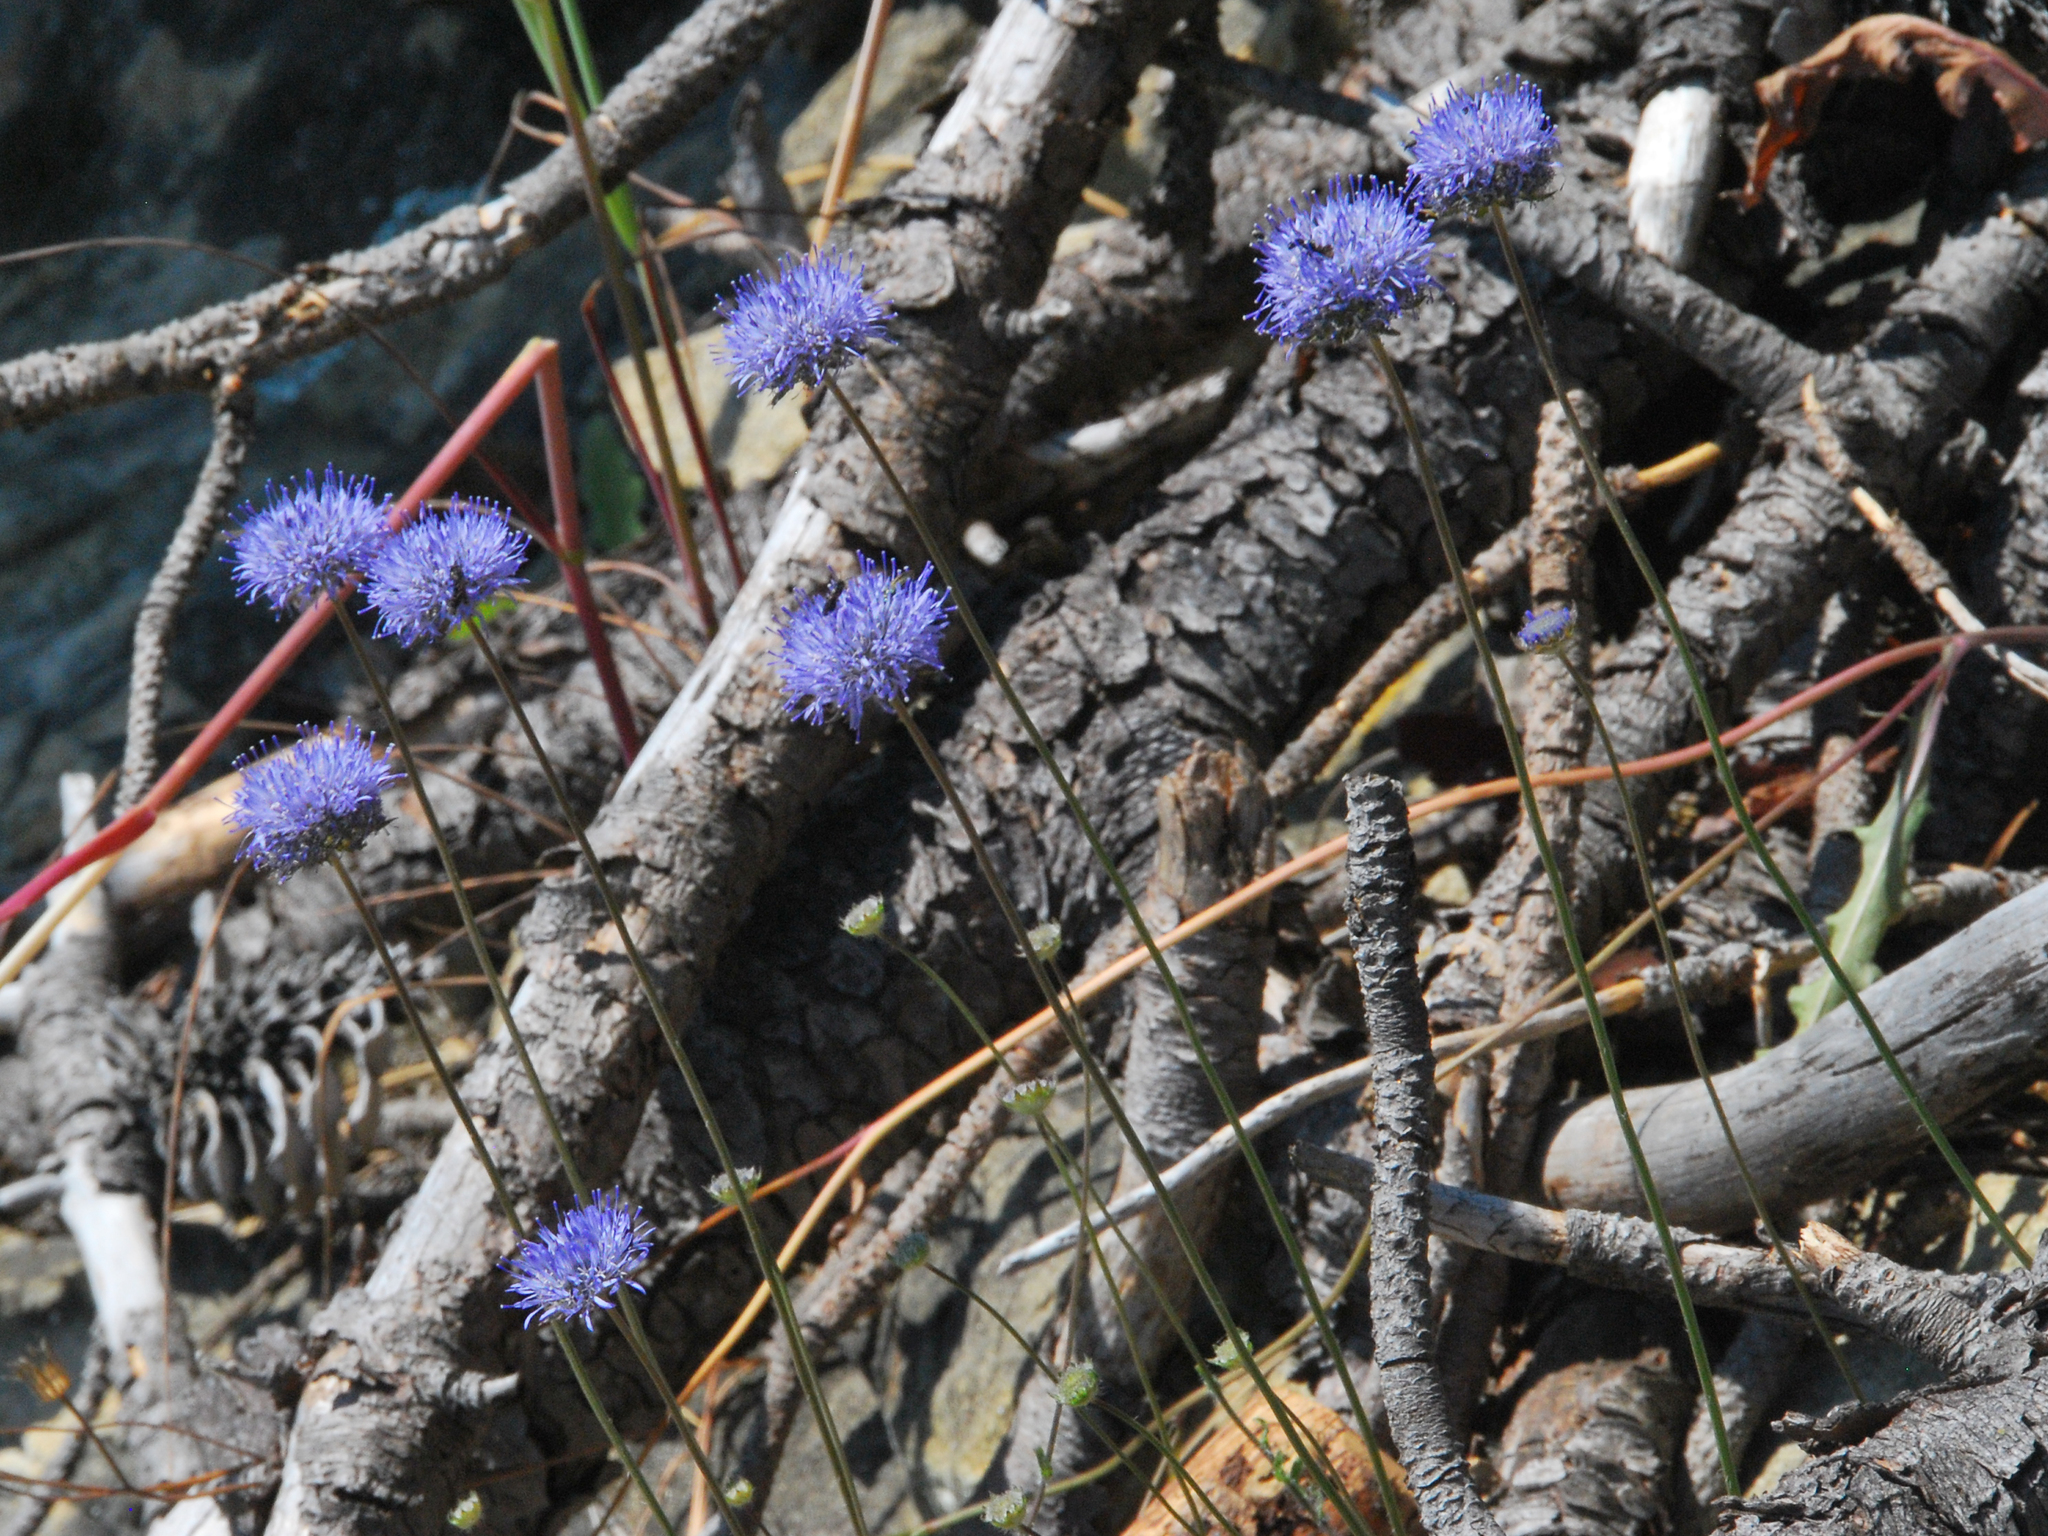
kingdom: Plantae
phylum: Tracheophyta
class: Magnoliopsida
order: Asterales
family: Campanulaceae
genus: Jasione
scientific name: Jasione montana
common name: Sheep's-bit
